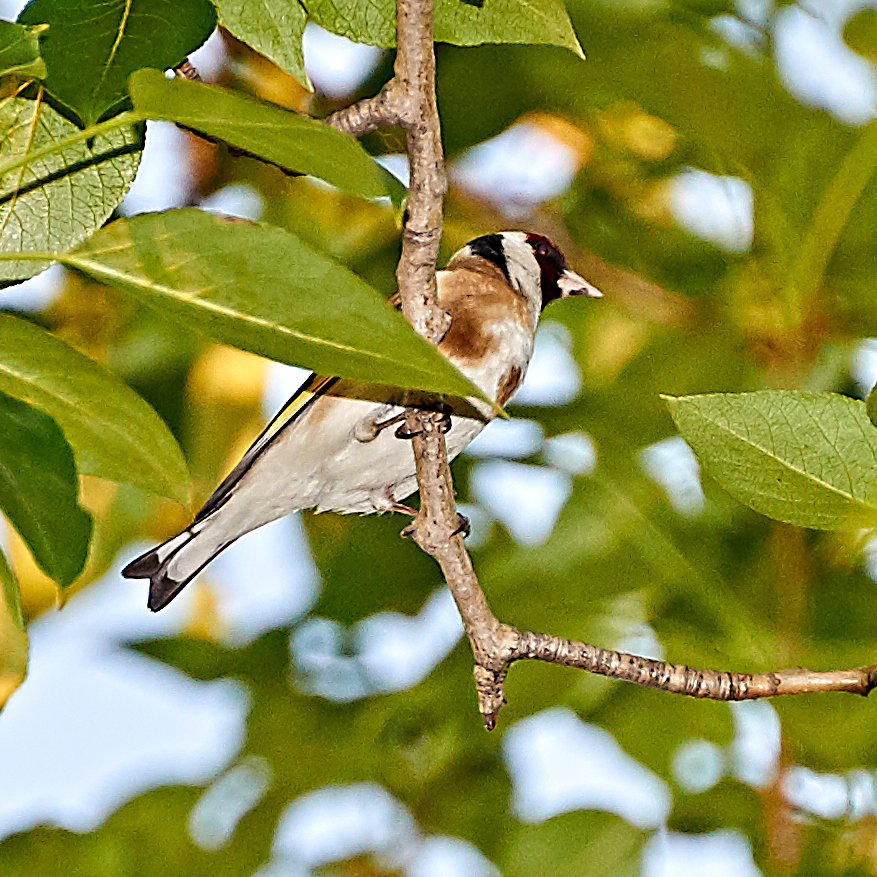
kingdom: Animalia
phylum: Chordata
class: Aves
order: Passeriformes
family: Fringillidae
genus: Carduelis
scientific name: Carduelis carduelis
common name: European goldfinch
